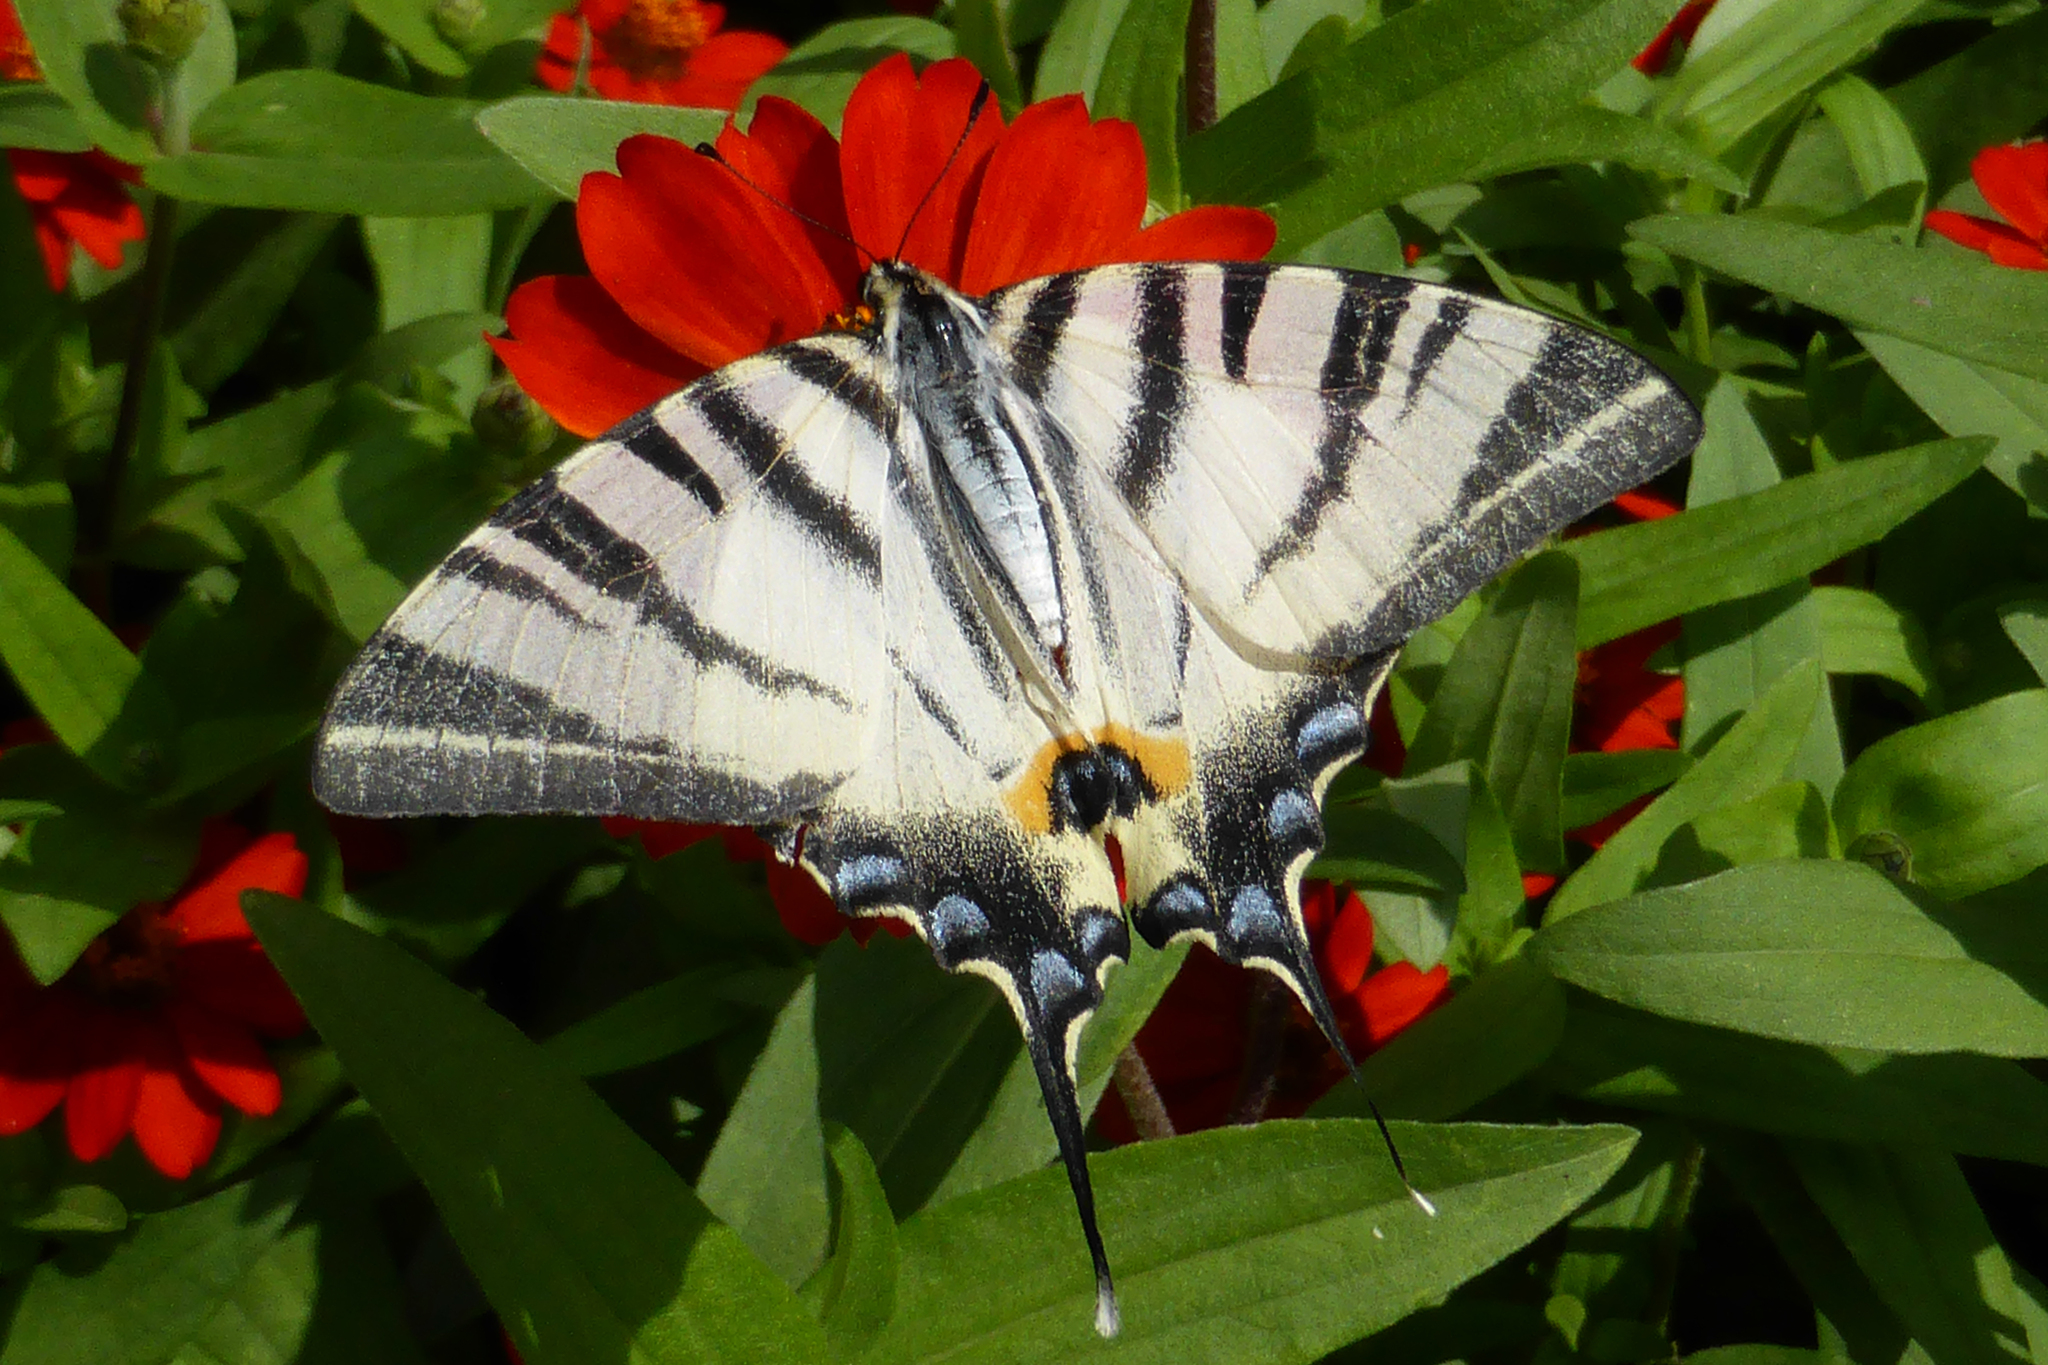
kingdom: Animalia
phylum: Arthropoda
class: Insecta
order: Lepidoptera
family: Papilionidae
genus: Iphiclides
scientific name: Iphiclides podalirius
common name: Scarce swallowtail
